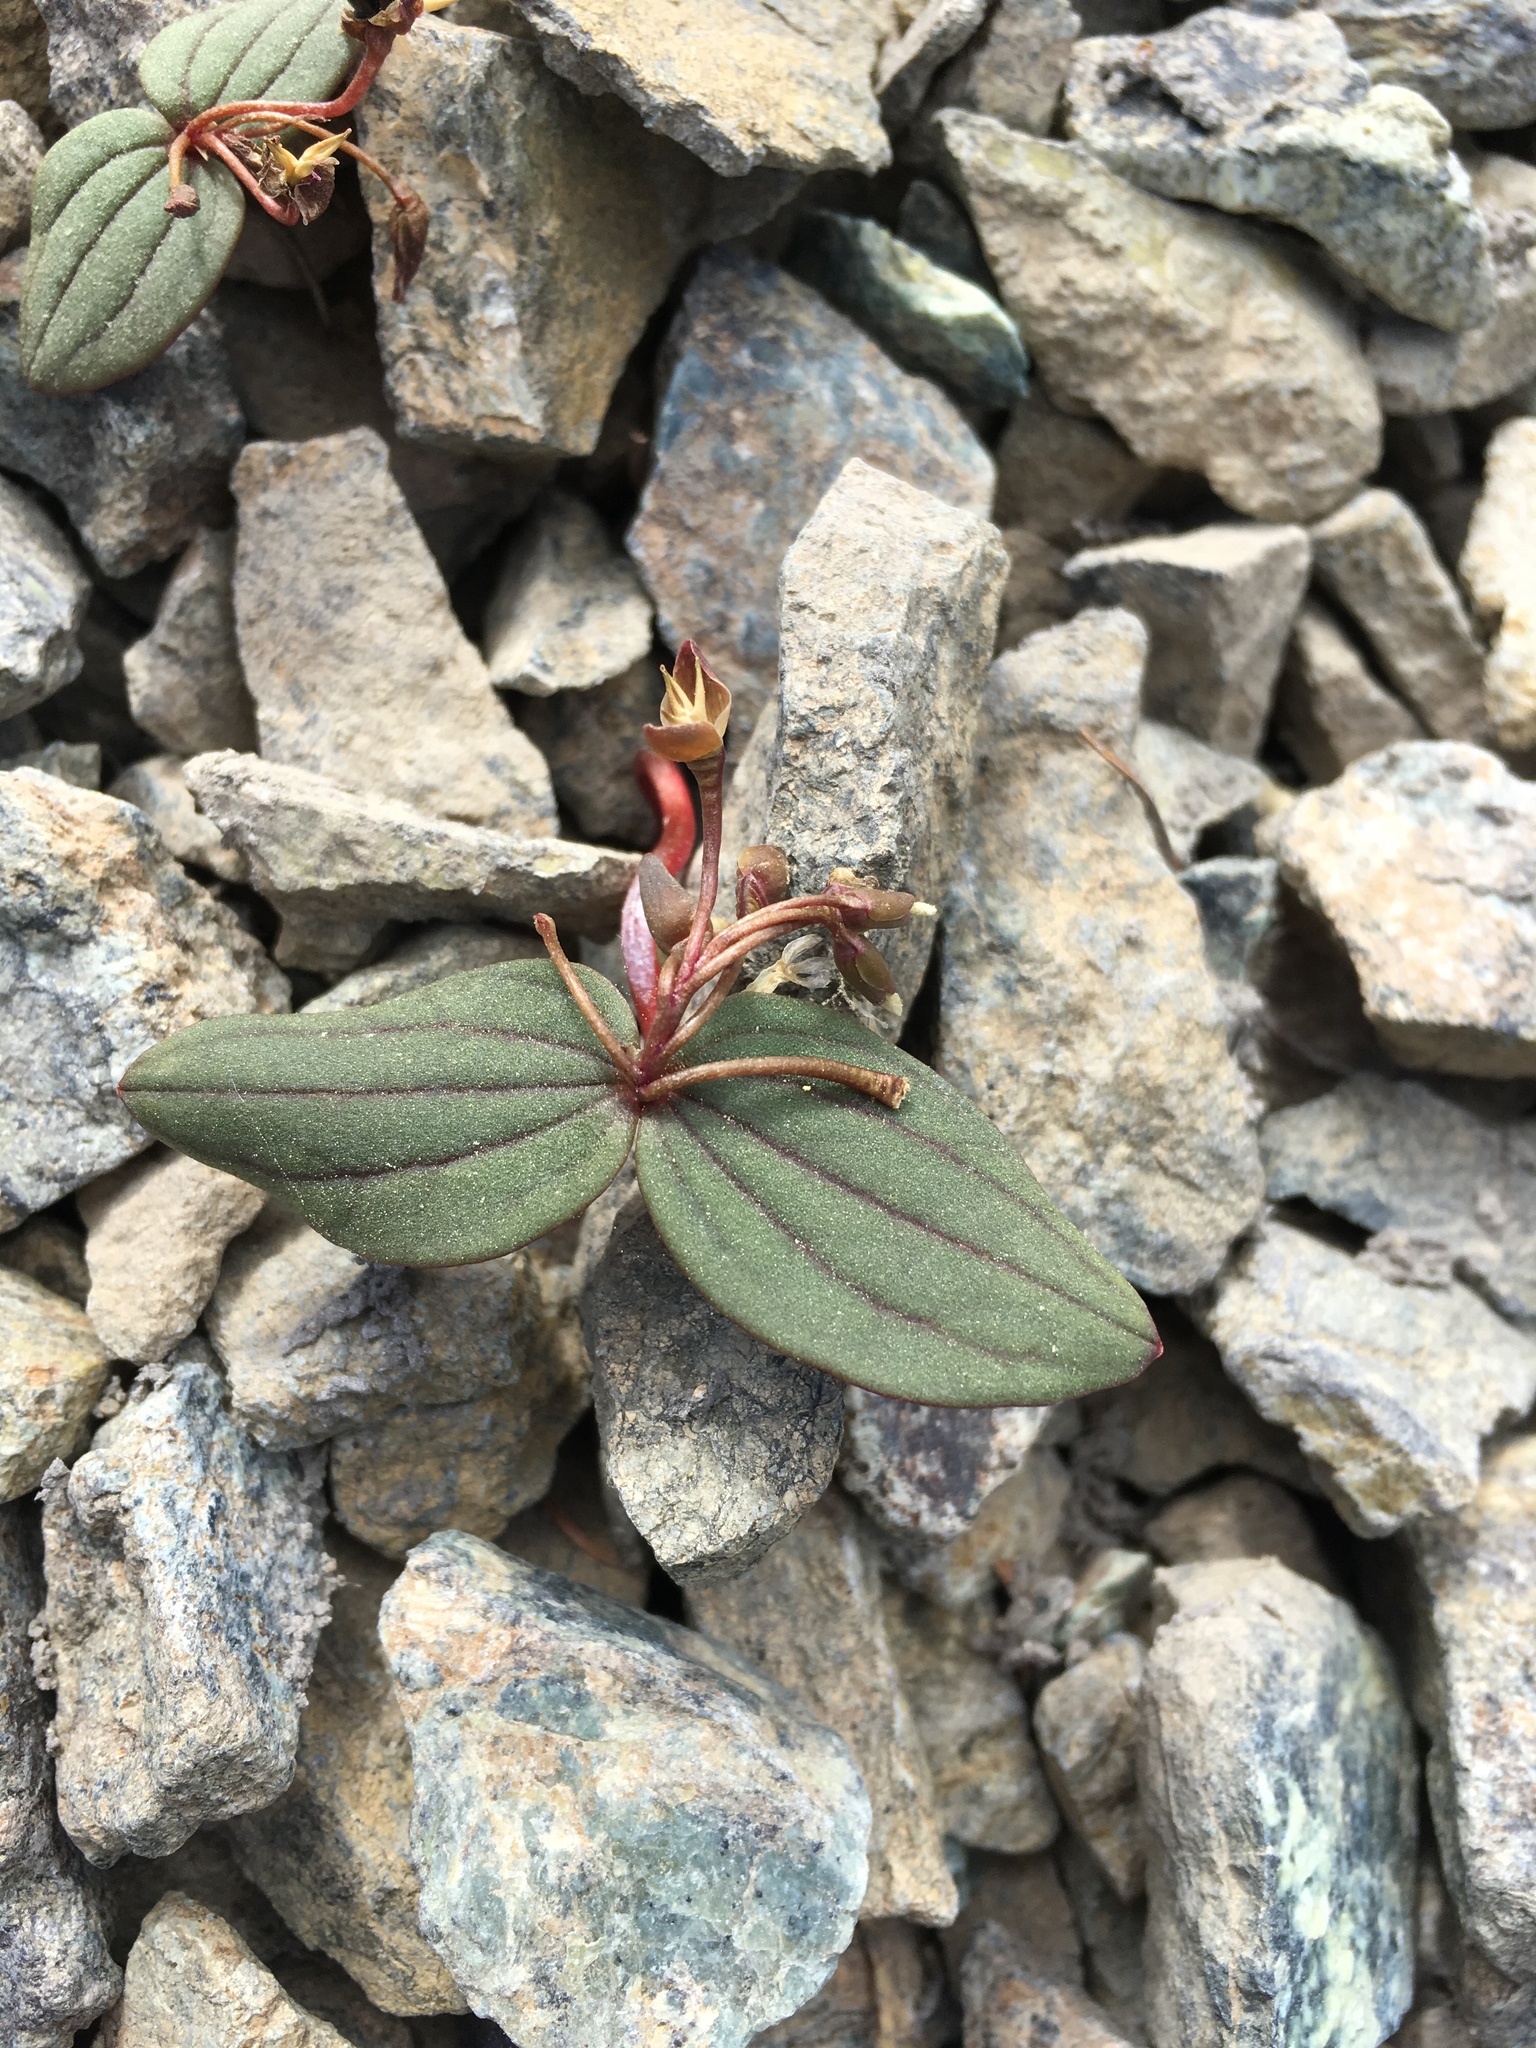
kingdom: Plantae
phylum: Tracheophyta
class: Magnoliopsida
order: Caryophyllales
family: Montiaceae
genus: Claytonia
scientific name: Claytonia obovata
